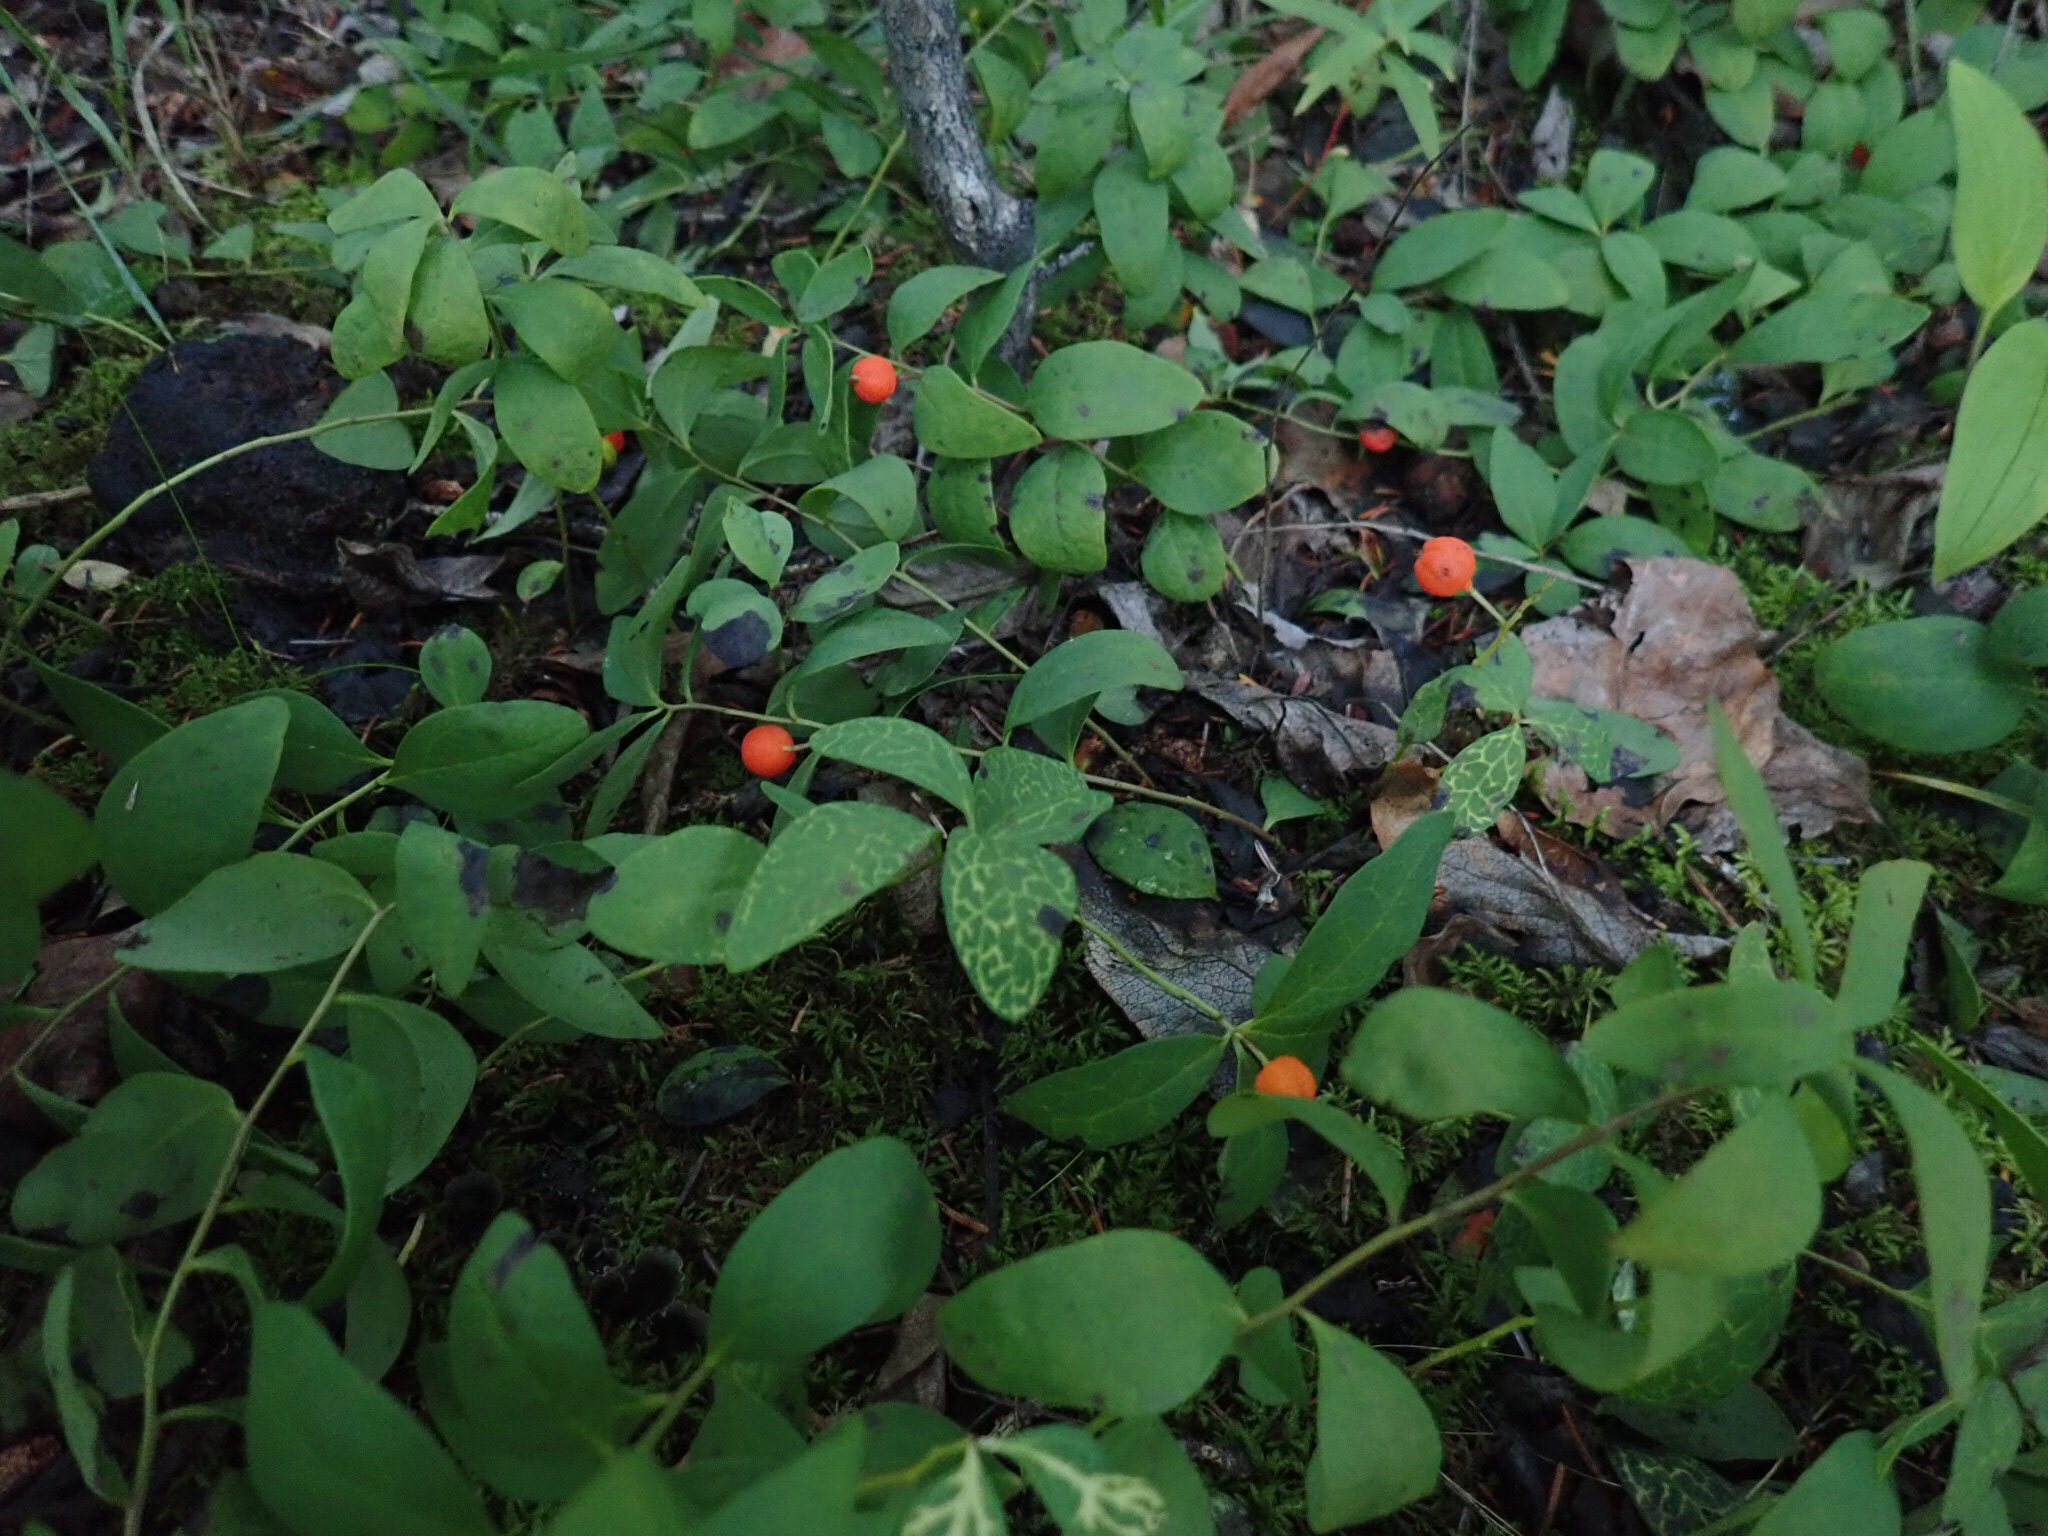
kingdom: Plantae
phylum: Tracheophyta
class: Magnoliopsida
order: Santalales
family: Comandraceae
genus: Geocaulon
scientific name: Geocaulon lividum
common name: Earthberry
